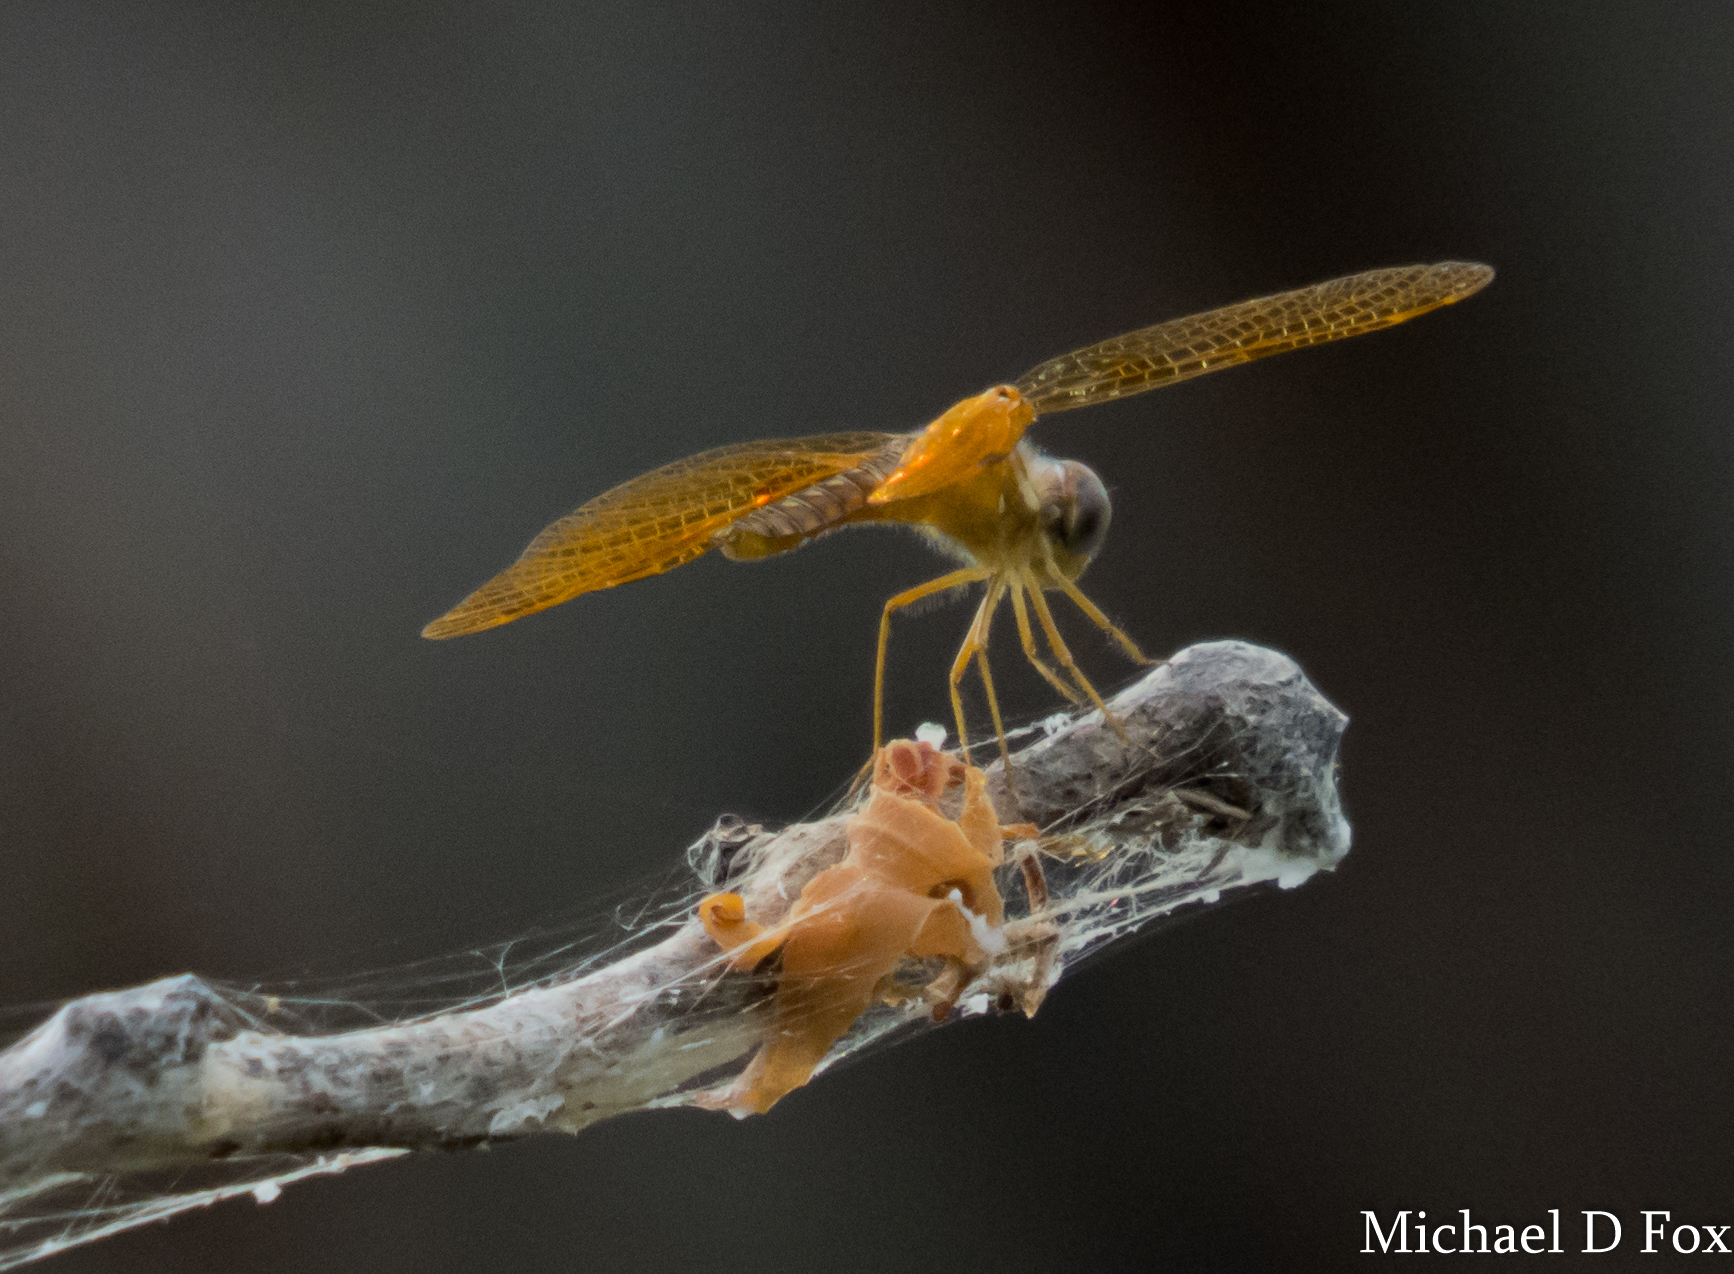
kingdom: Animalia
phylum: Arthropoda
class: Insecta
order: Odonata
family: Libellulidae
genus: Perithemis
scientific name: Perithemis tenera
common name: Eastern amberwing
